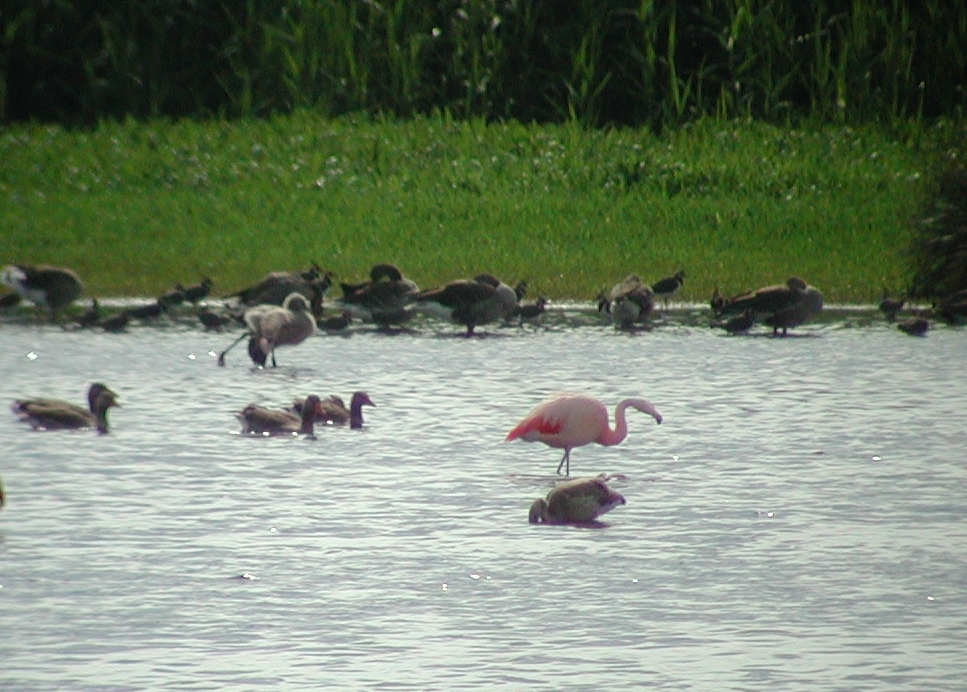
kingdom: Animalia
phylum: Chordata
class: Aves
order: Phoenicopteriformes
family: Phoenicopteridae
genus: Phoenicopterus
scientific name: Phoenicopterus chilensis
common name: Chilean flamingo
